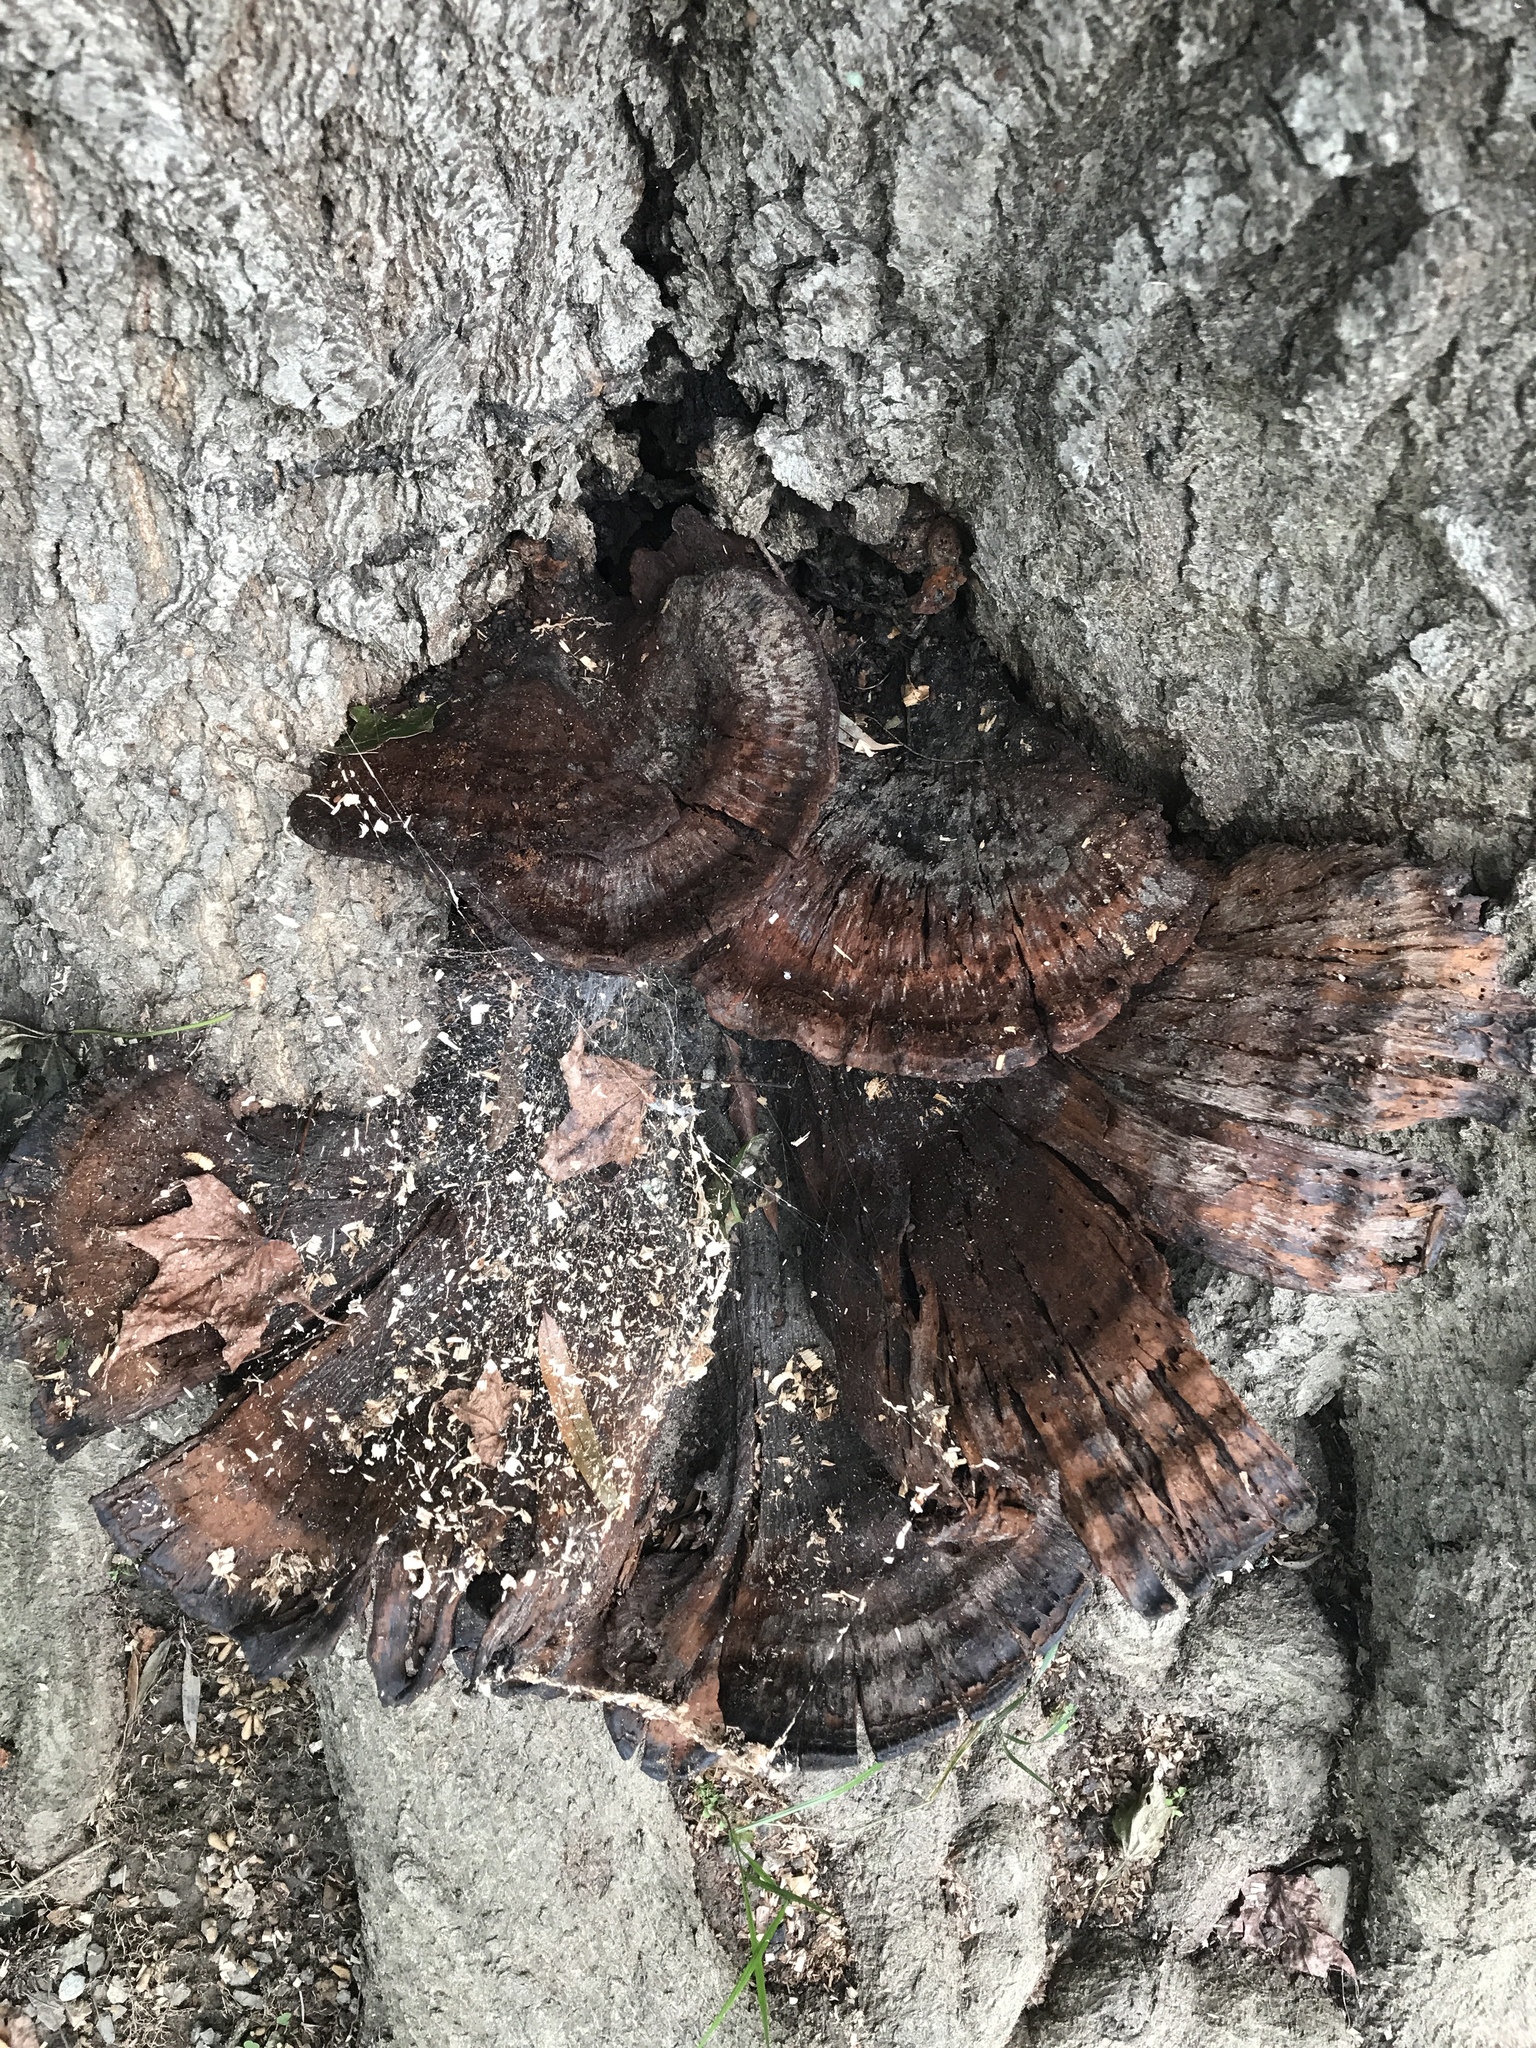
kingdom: Fungi
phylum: Basidiomycota
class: Agaricomycetes
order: Polyporales
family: Polyporaceae
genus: Ganoderma
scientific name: Ganoderma resinaceum
